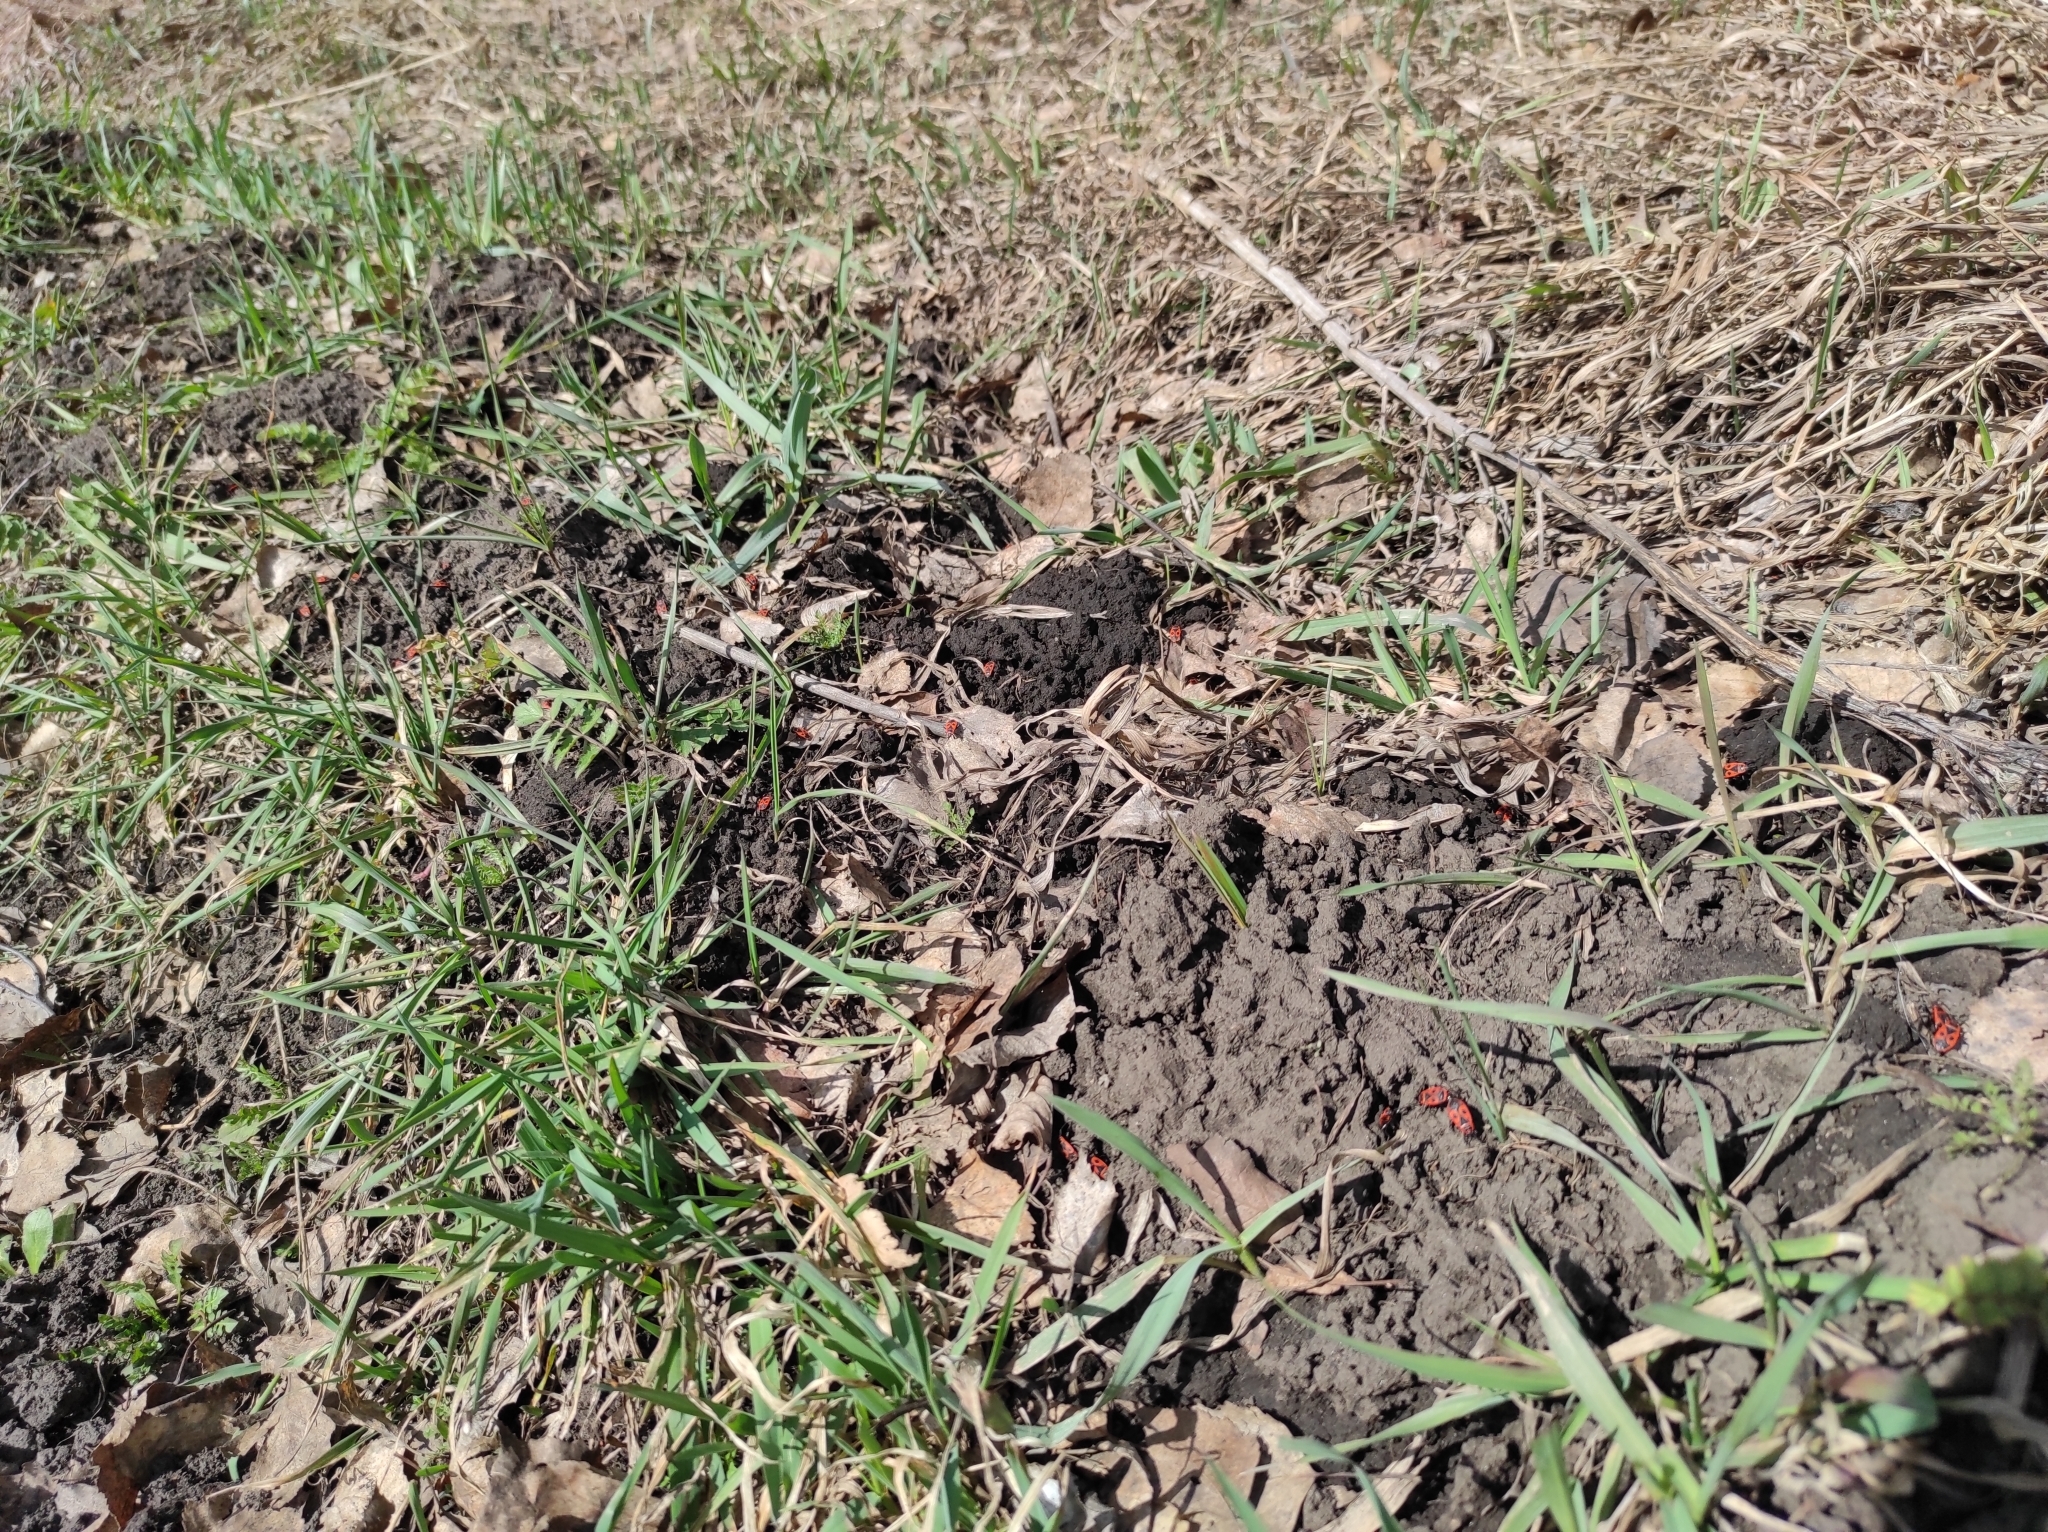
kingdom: Animalia
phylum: Arthropoda
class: Insecta
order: Hemiptera
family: Pyrrhocoridae
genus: Pyrrhocoris
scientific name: Pyrrhocoris apterus
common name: Firebug
